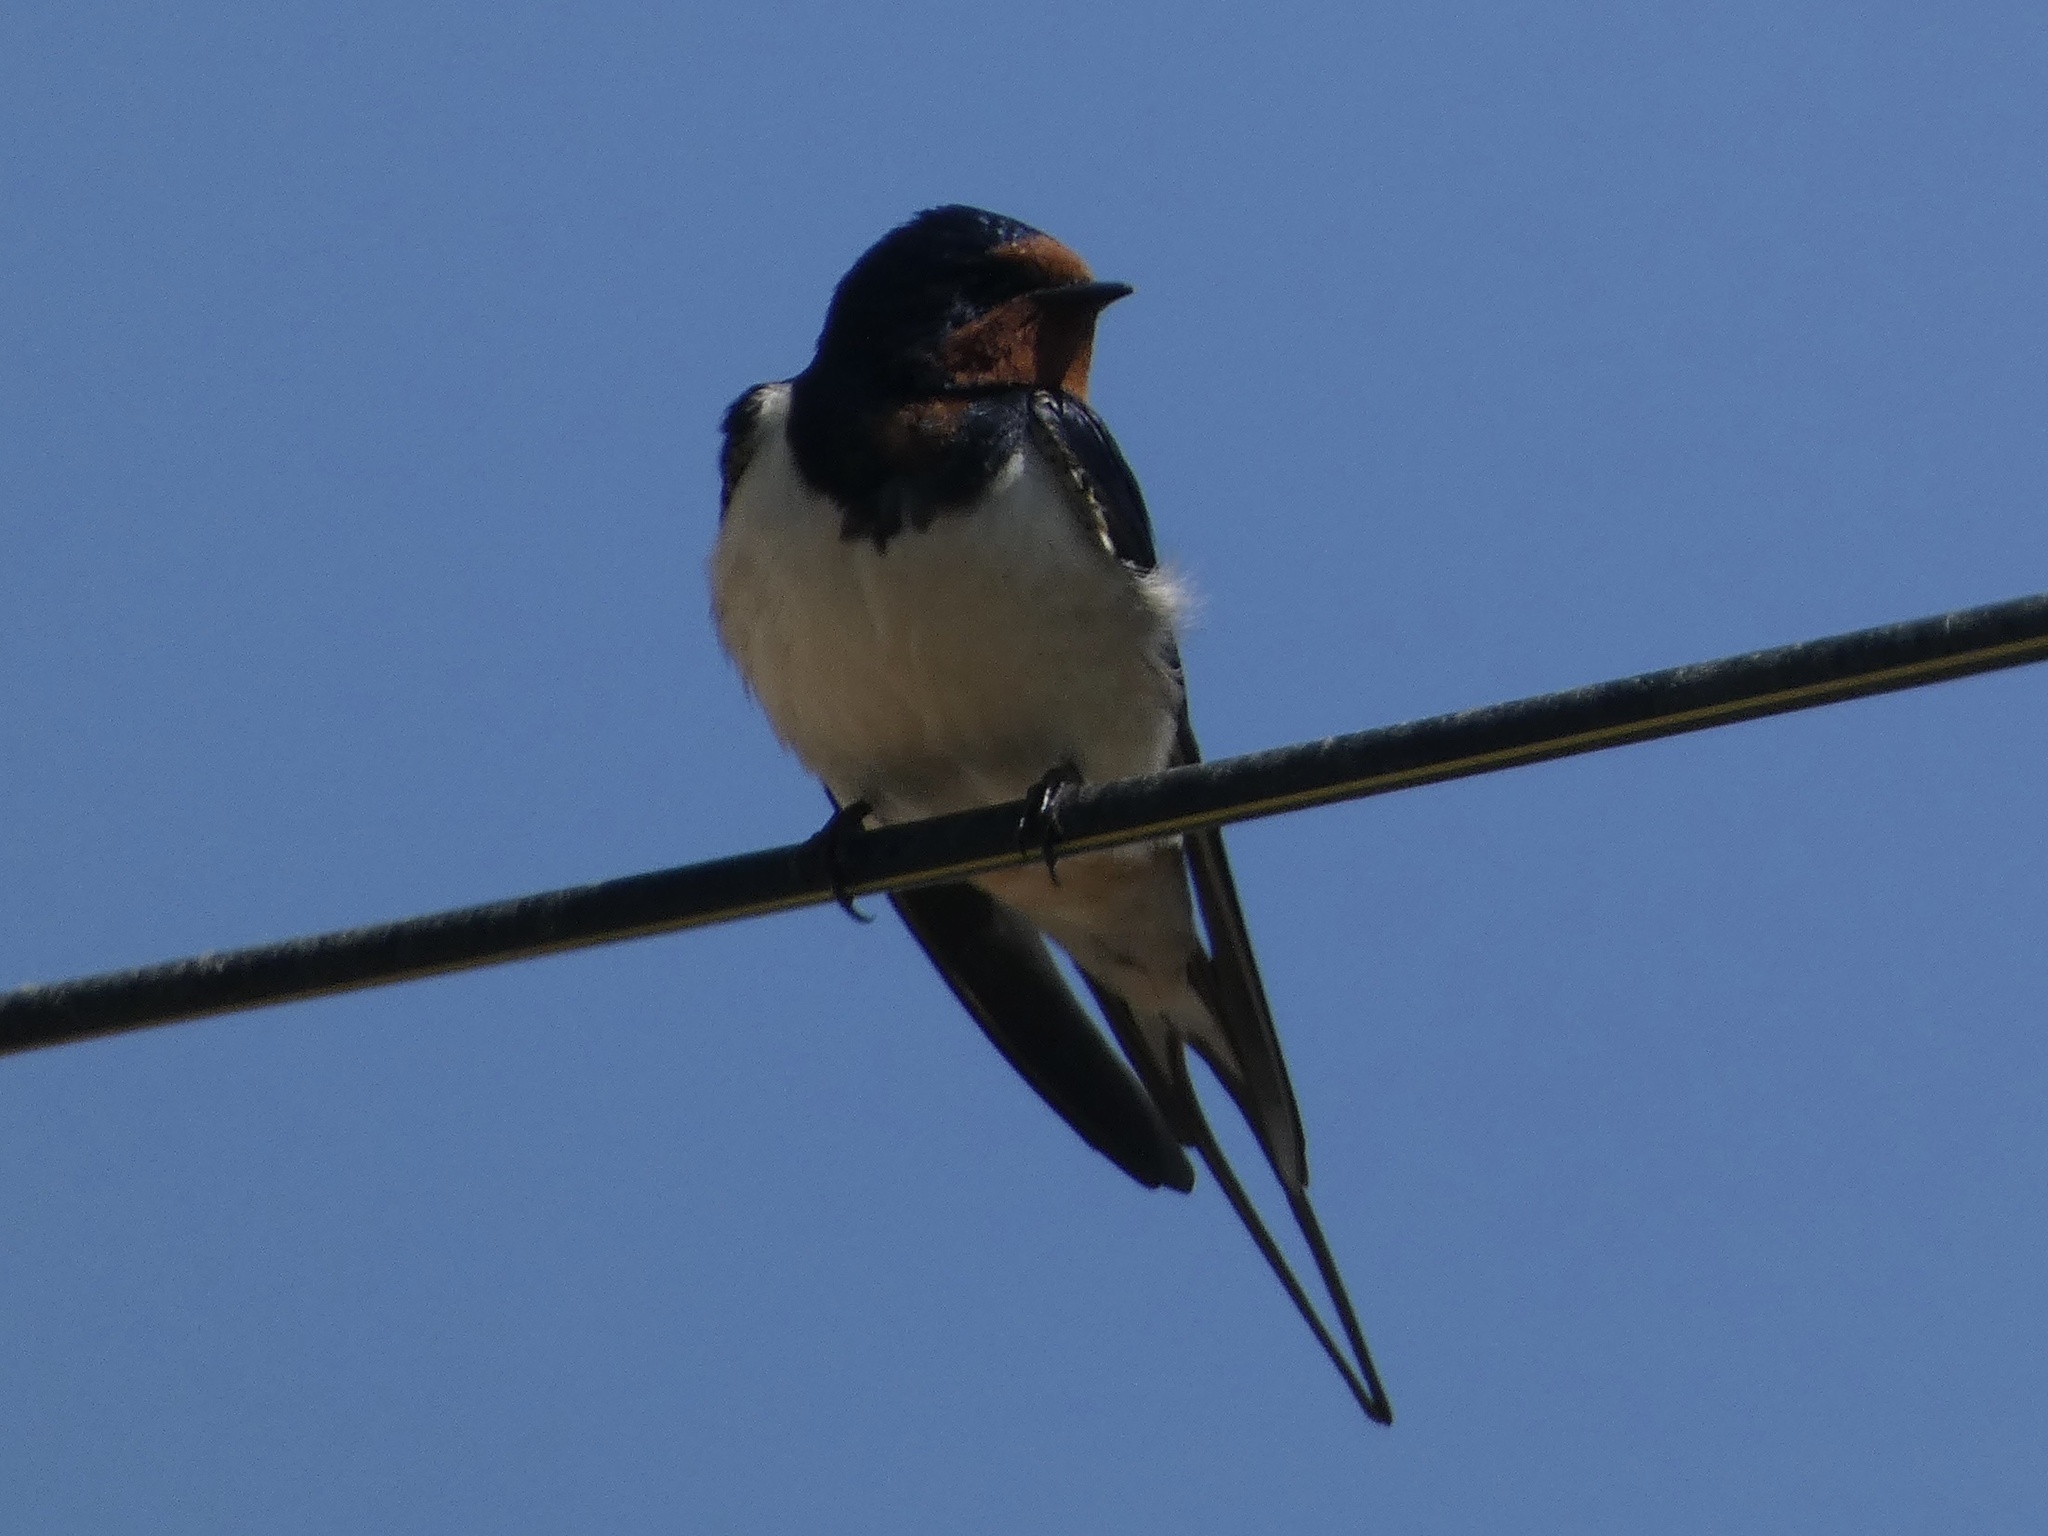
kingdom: Animalia
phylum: Chordata
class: Aves
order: Passeriformes
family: Hirundinidae
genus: Hirundo
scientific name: Hirundo rustica
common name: Barn swallow
